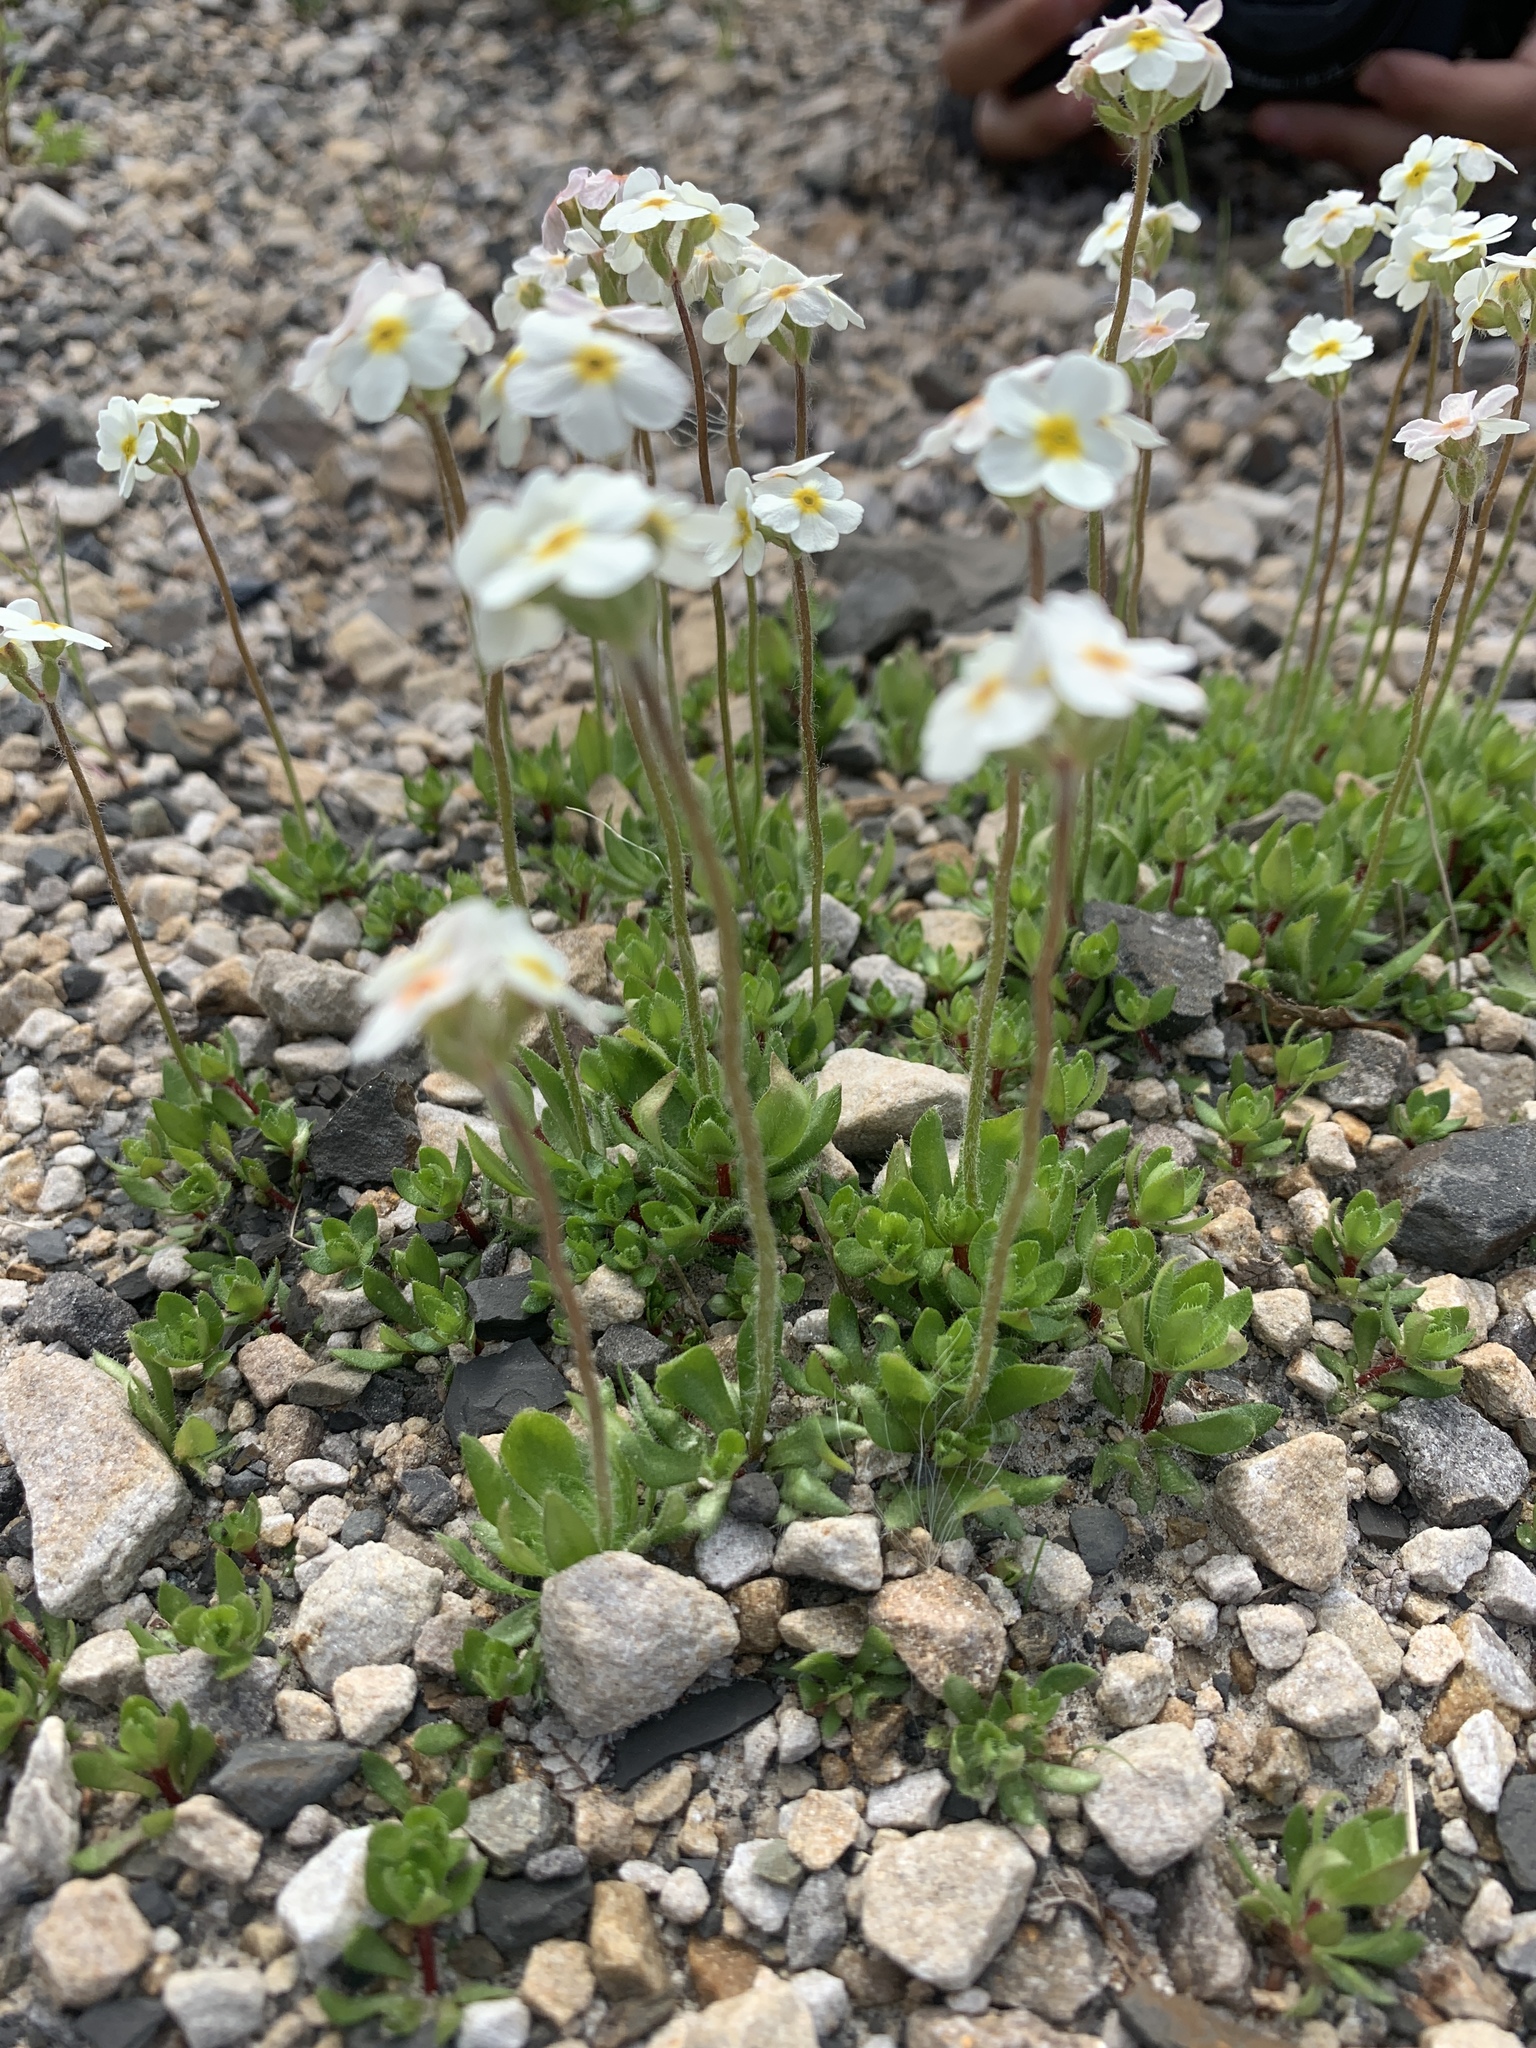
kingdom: Plantae
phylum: Tracheophyta
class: Magnoliopsida
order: Ericales
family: Primulaceae
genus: Androsace
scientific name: Androsace chamaejasme
